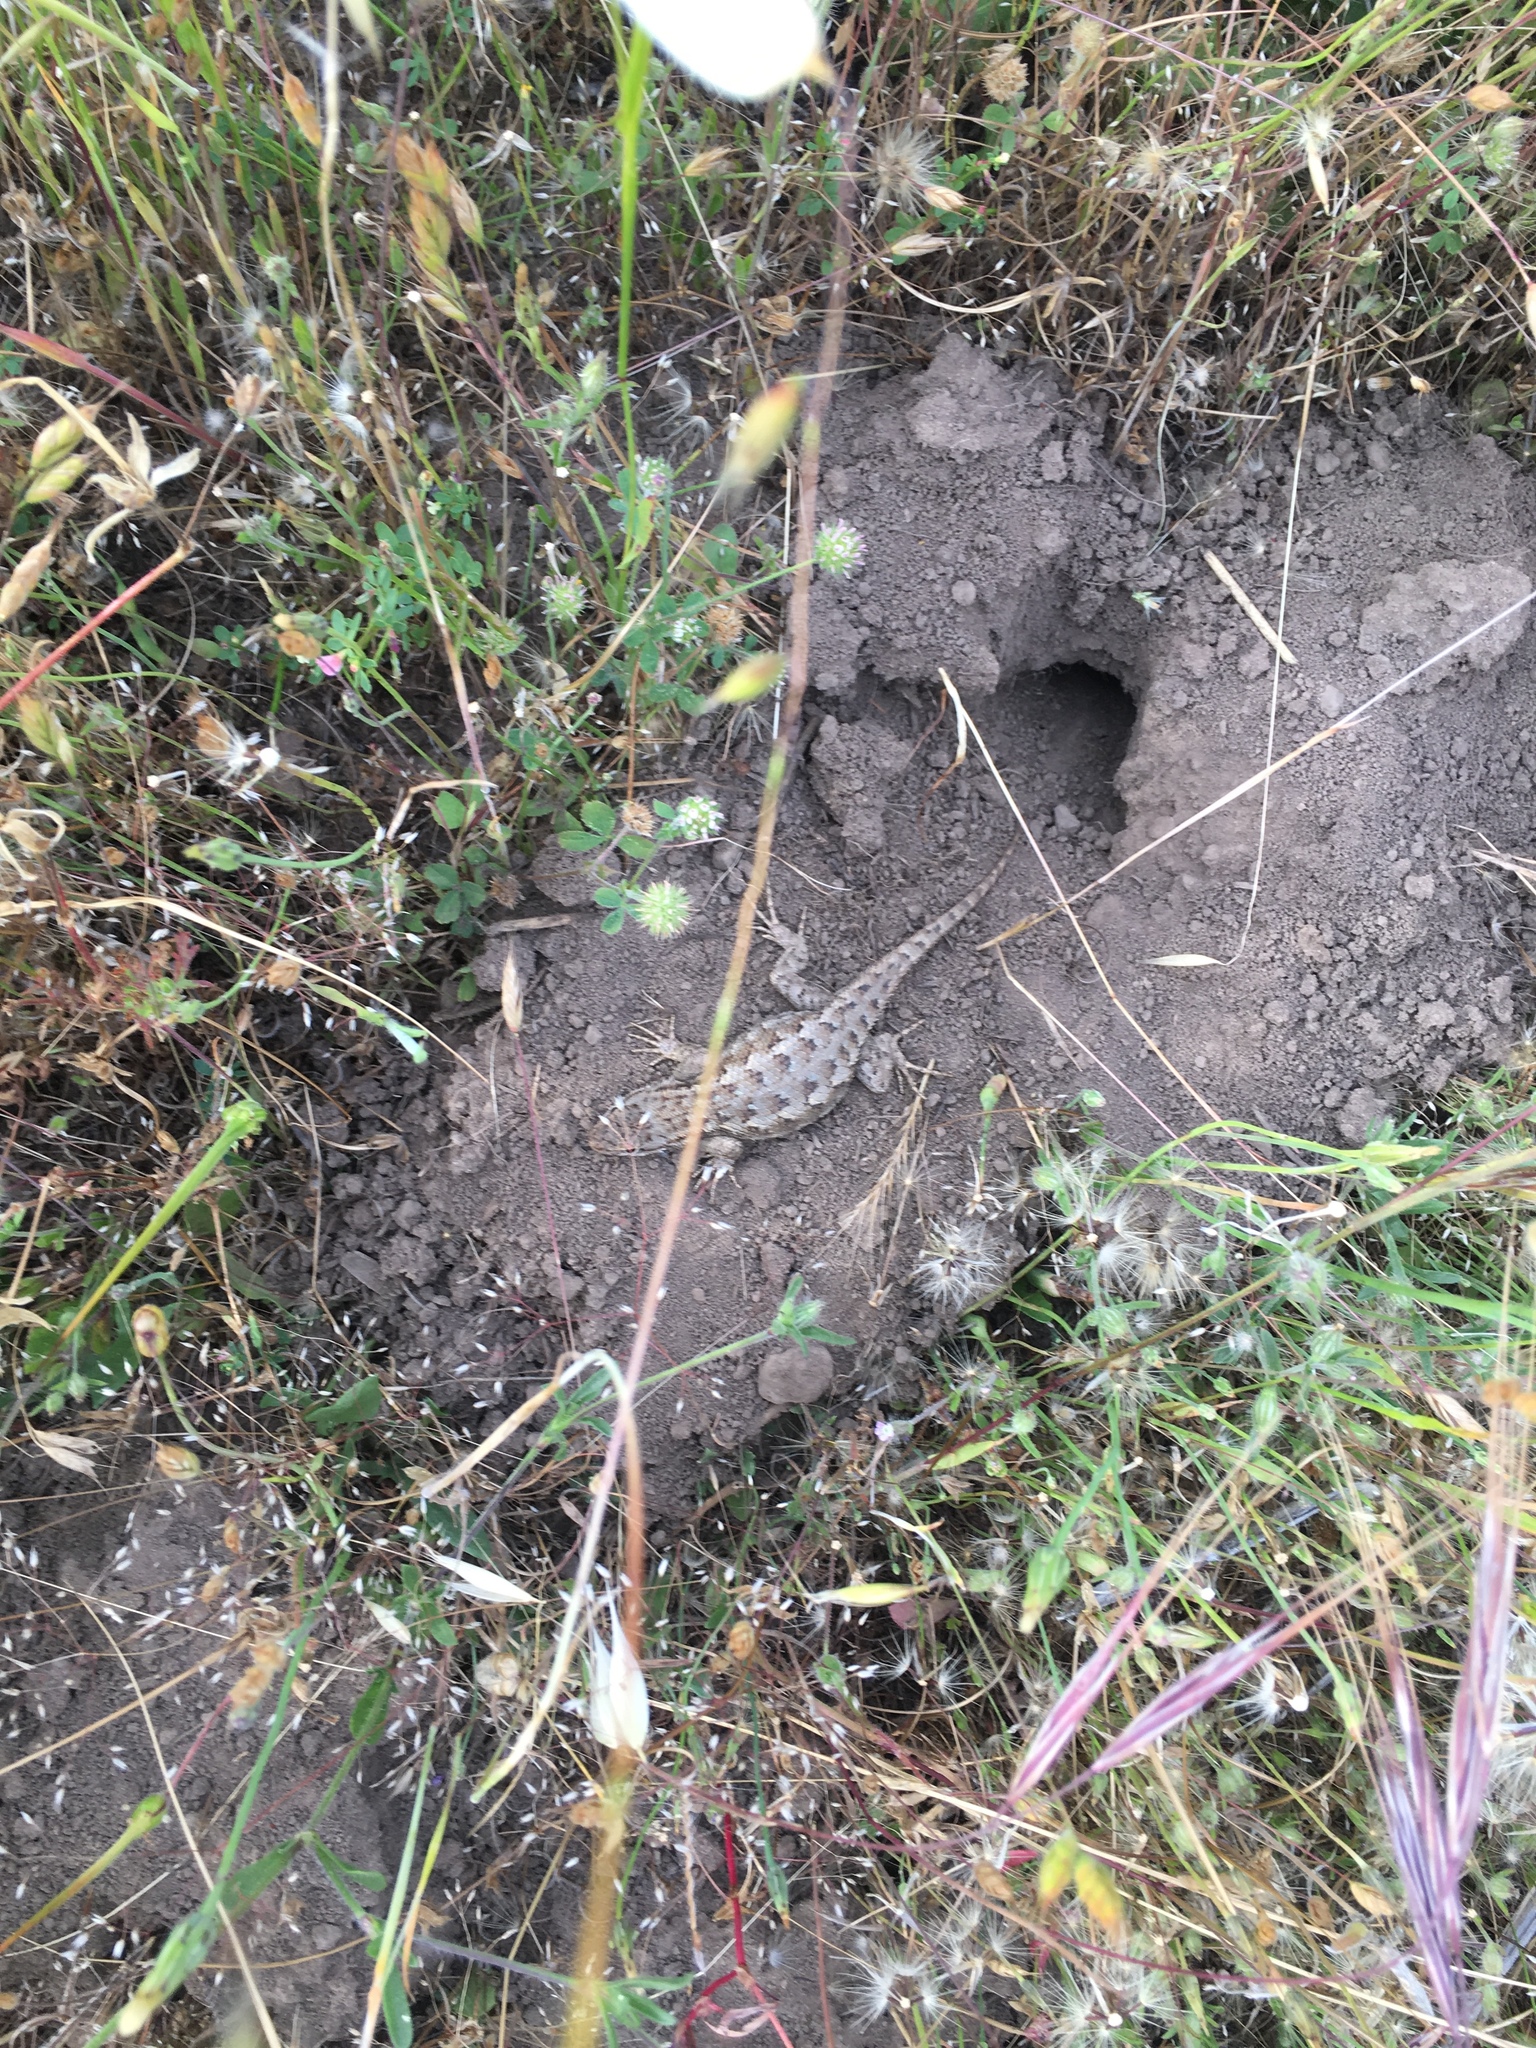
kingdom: Animalia
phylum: Chordata
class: Squamata
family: Phrynosomatidae
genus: Sceloporus
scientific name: Sceloporus occidentalis
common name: Western fence lizard
